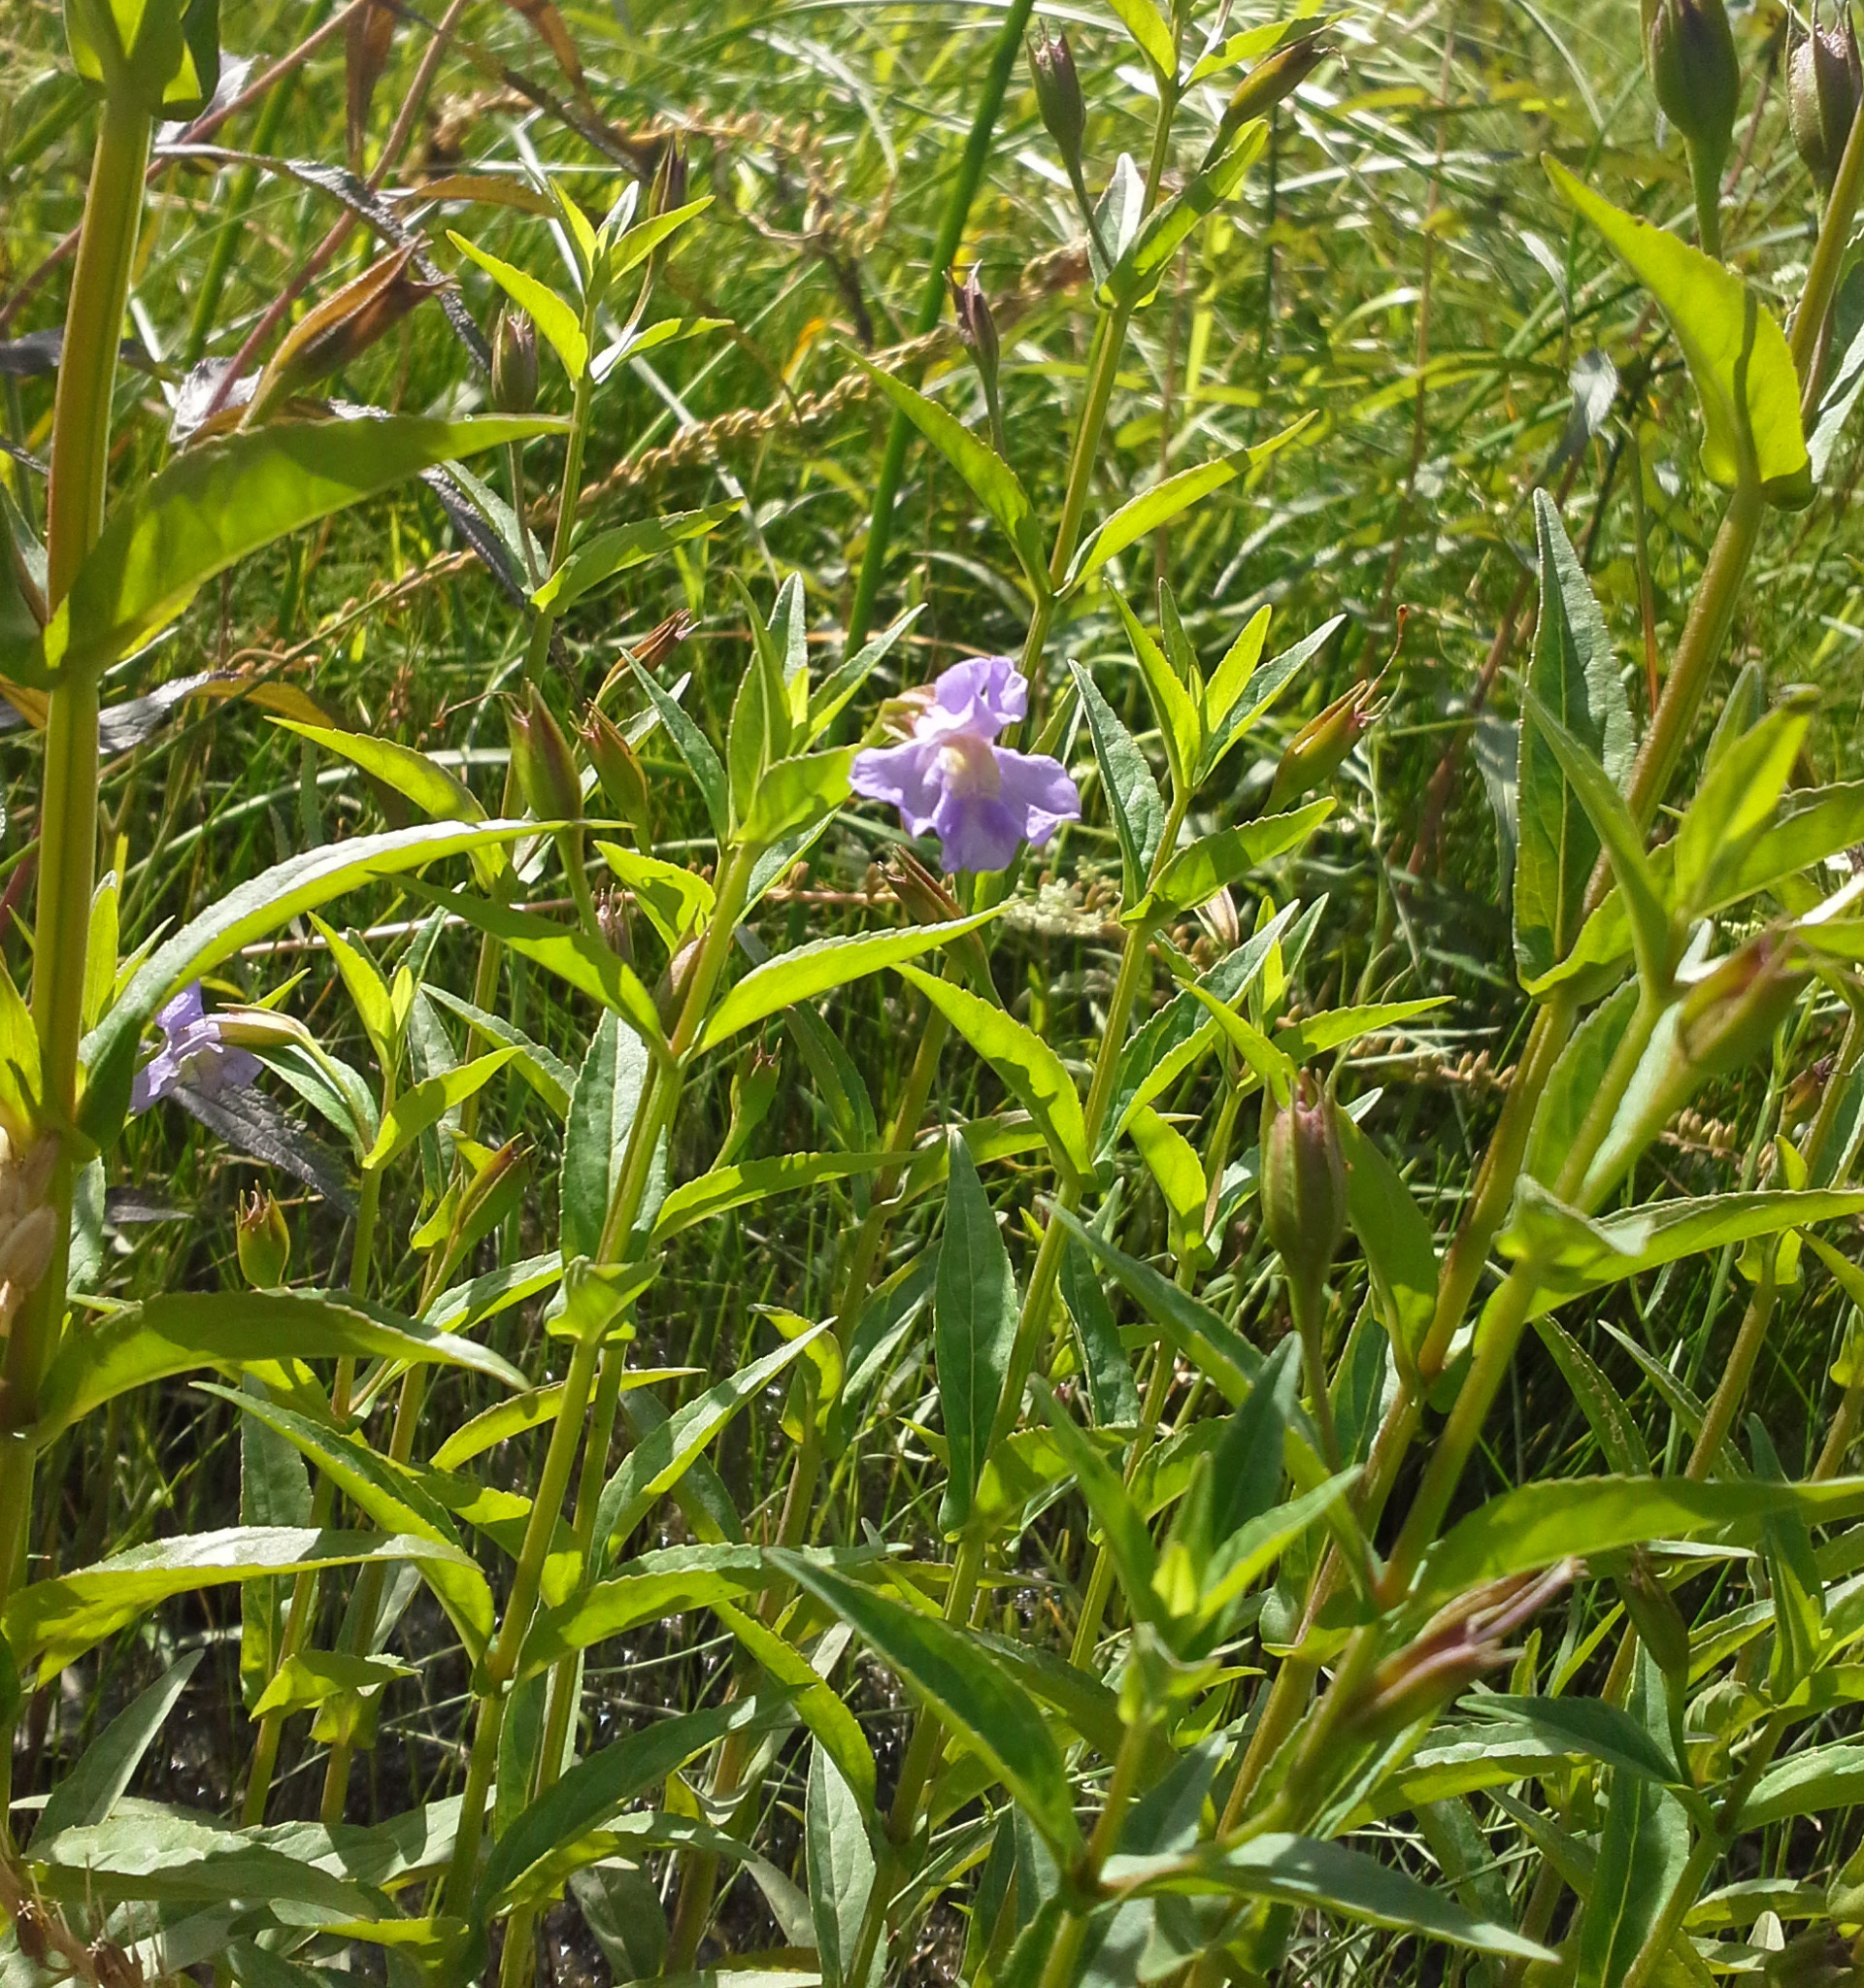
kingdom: Plantae
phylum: Tracheophyta
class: Magnoliopsida
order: Lamiales
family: Phrymaceae
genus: Mimulus
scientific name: Mimulus ringens
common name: Allegheny monkeyflower
